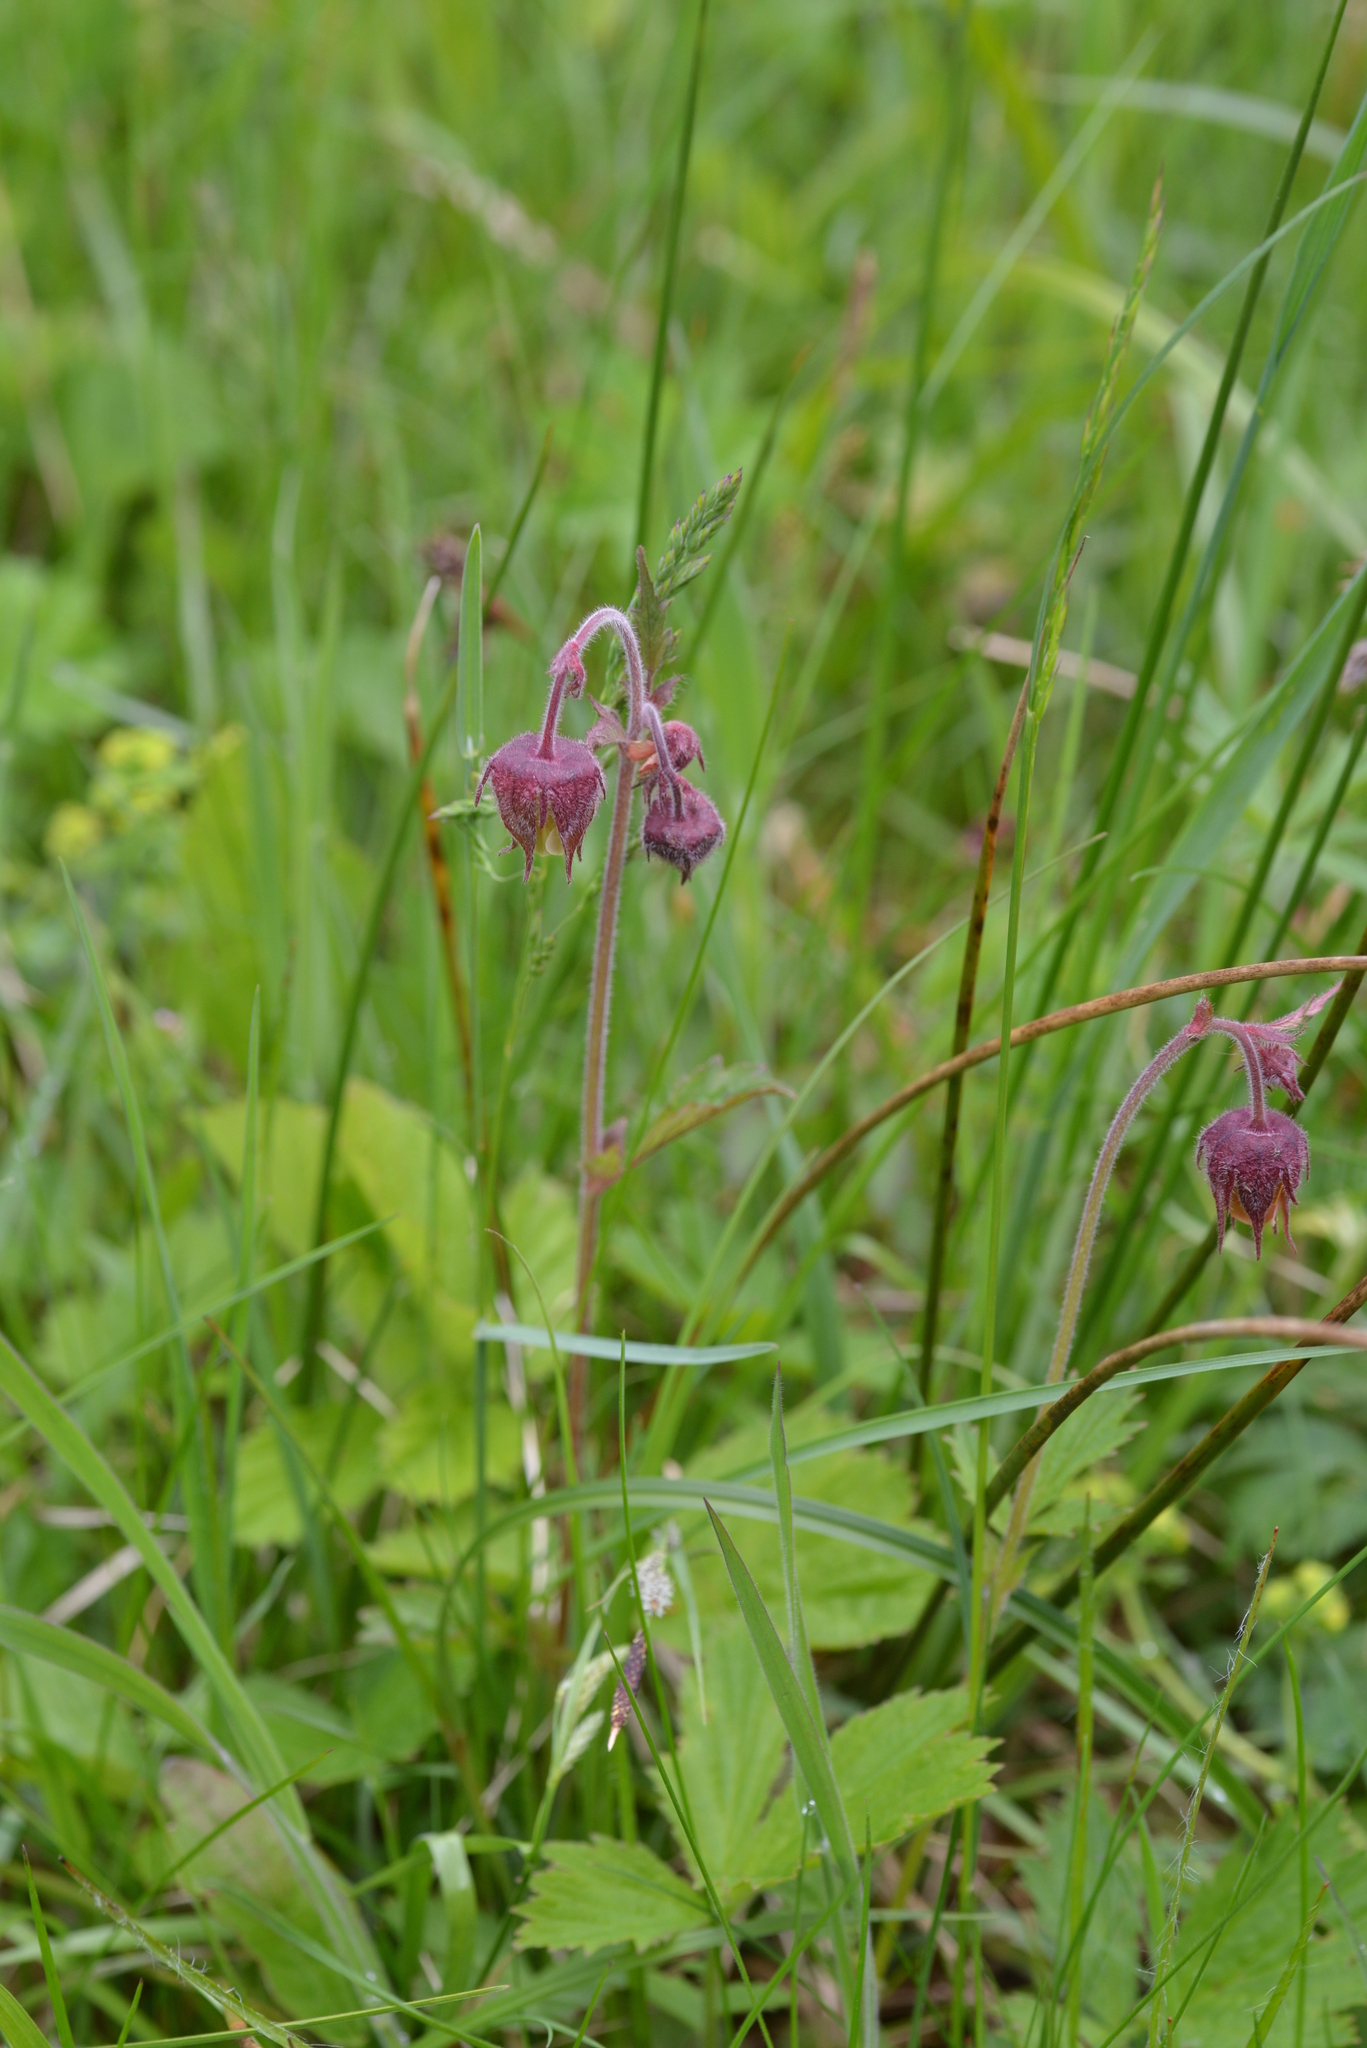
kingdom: Plantae
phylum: Tracheophyta
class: Magnoliopsida
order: Rosales
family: Rosaceae
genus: Geum
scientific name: Geum rivale
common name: Water avens
